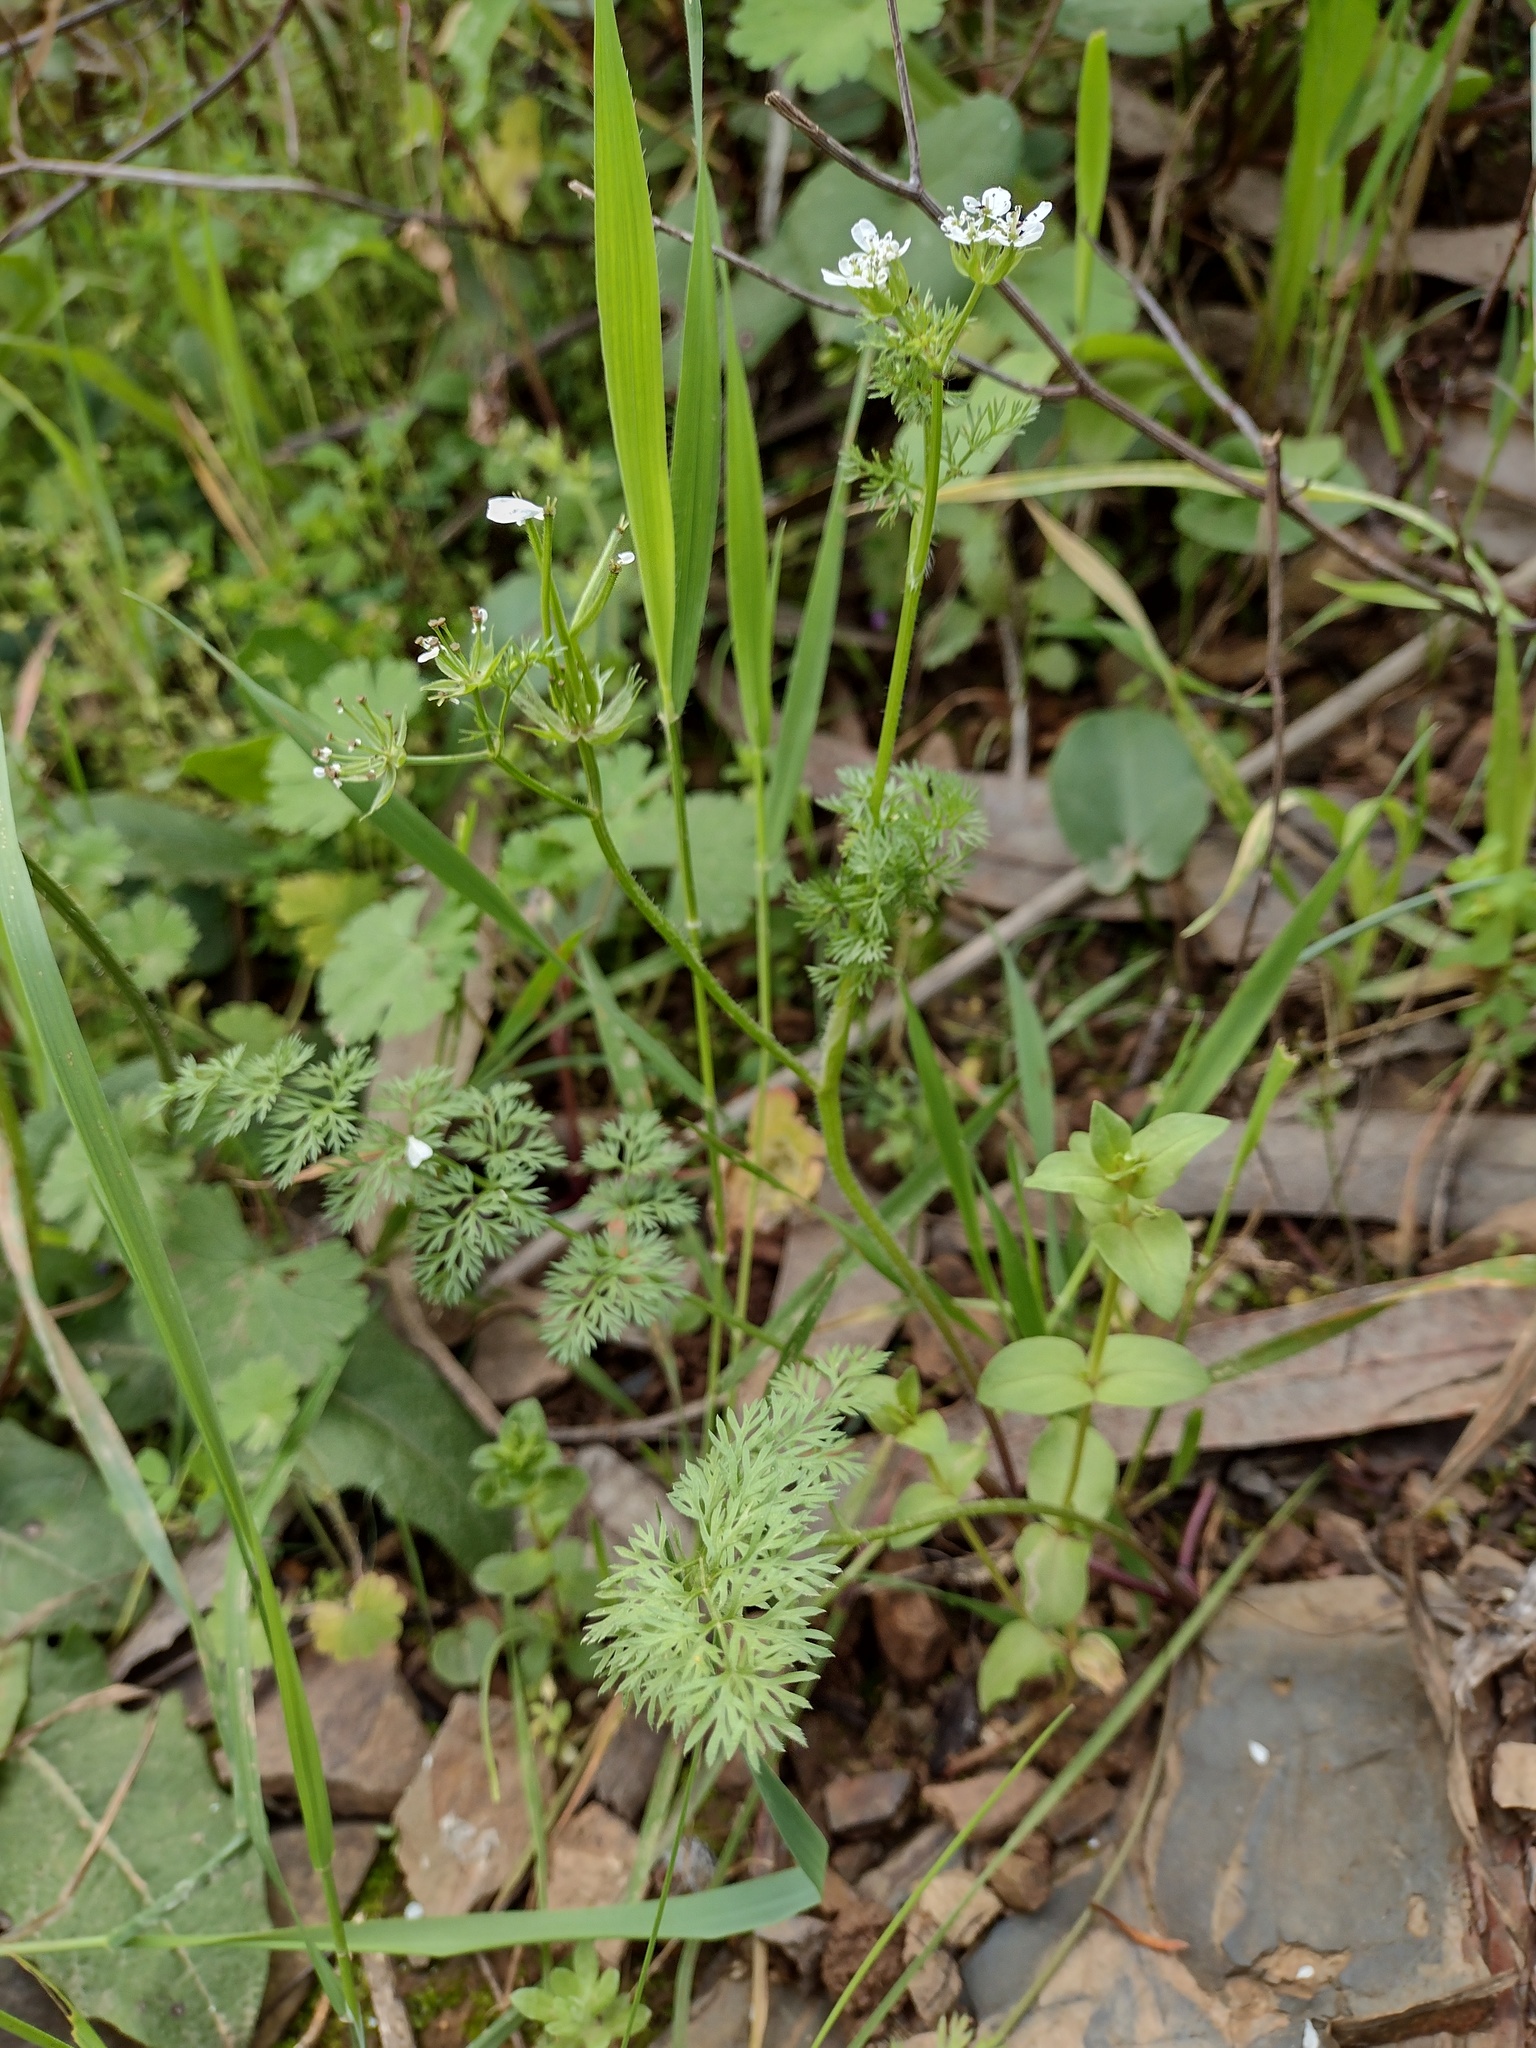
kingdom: Plantae
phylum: Tracheophyta
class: Magnoliopsida
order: Apiales
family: Apiaceae
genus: Scandix
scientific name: Scandix pecten-veneris
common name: Shepherd's-needle
